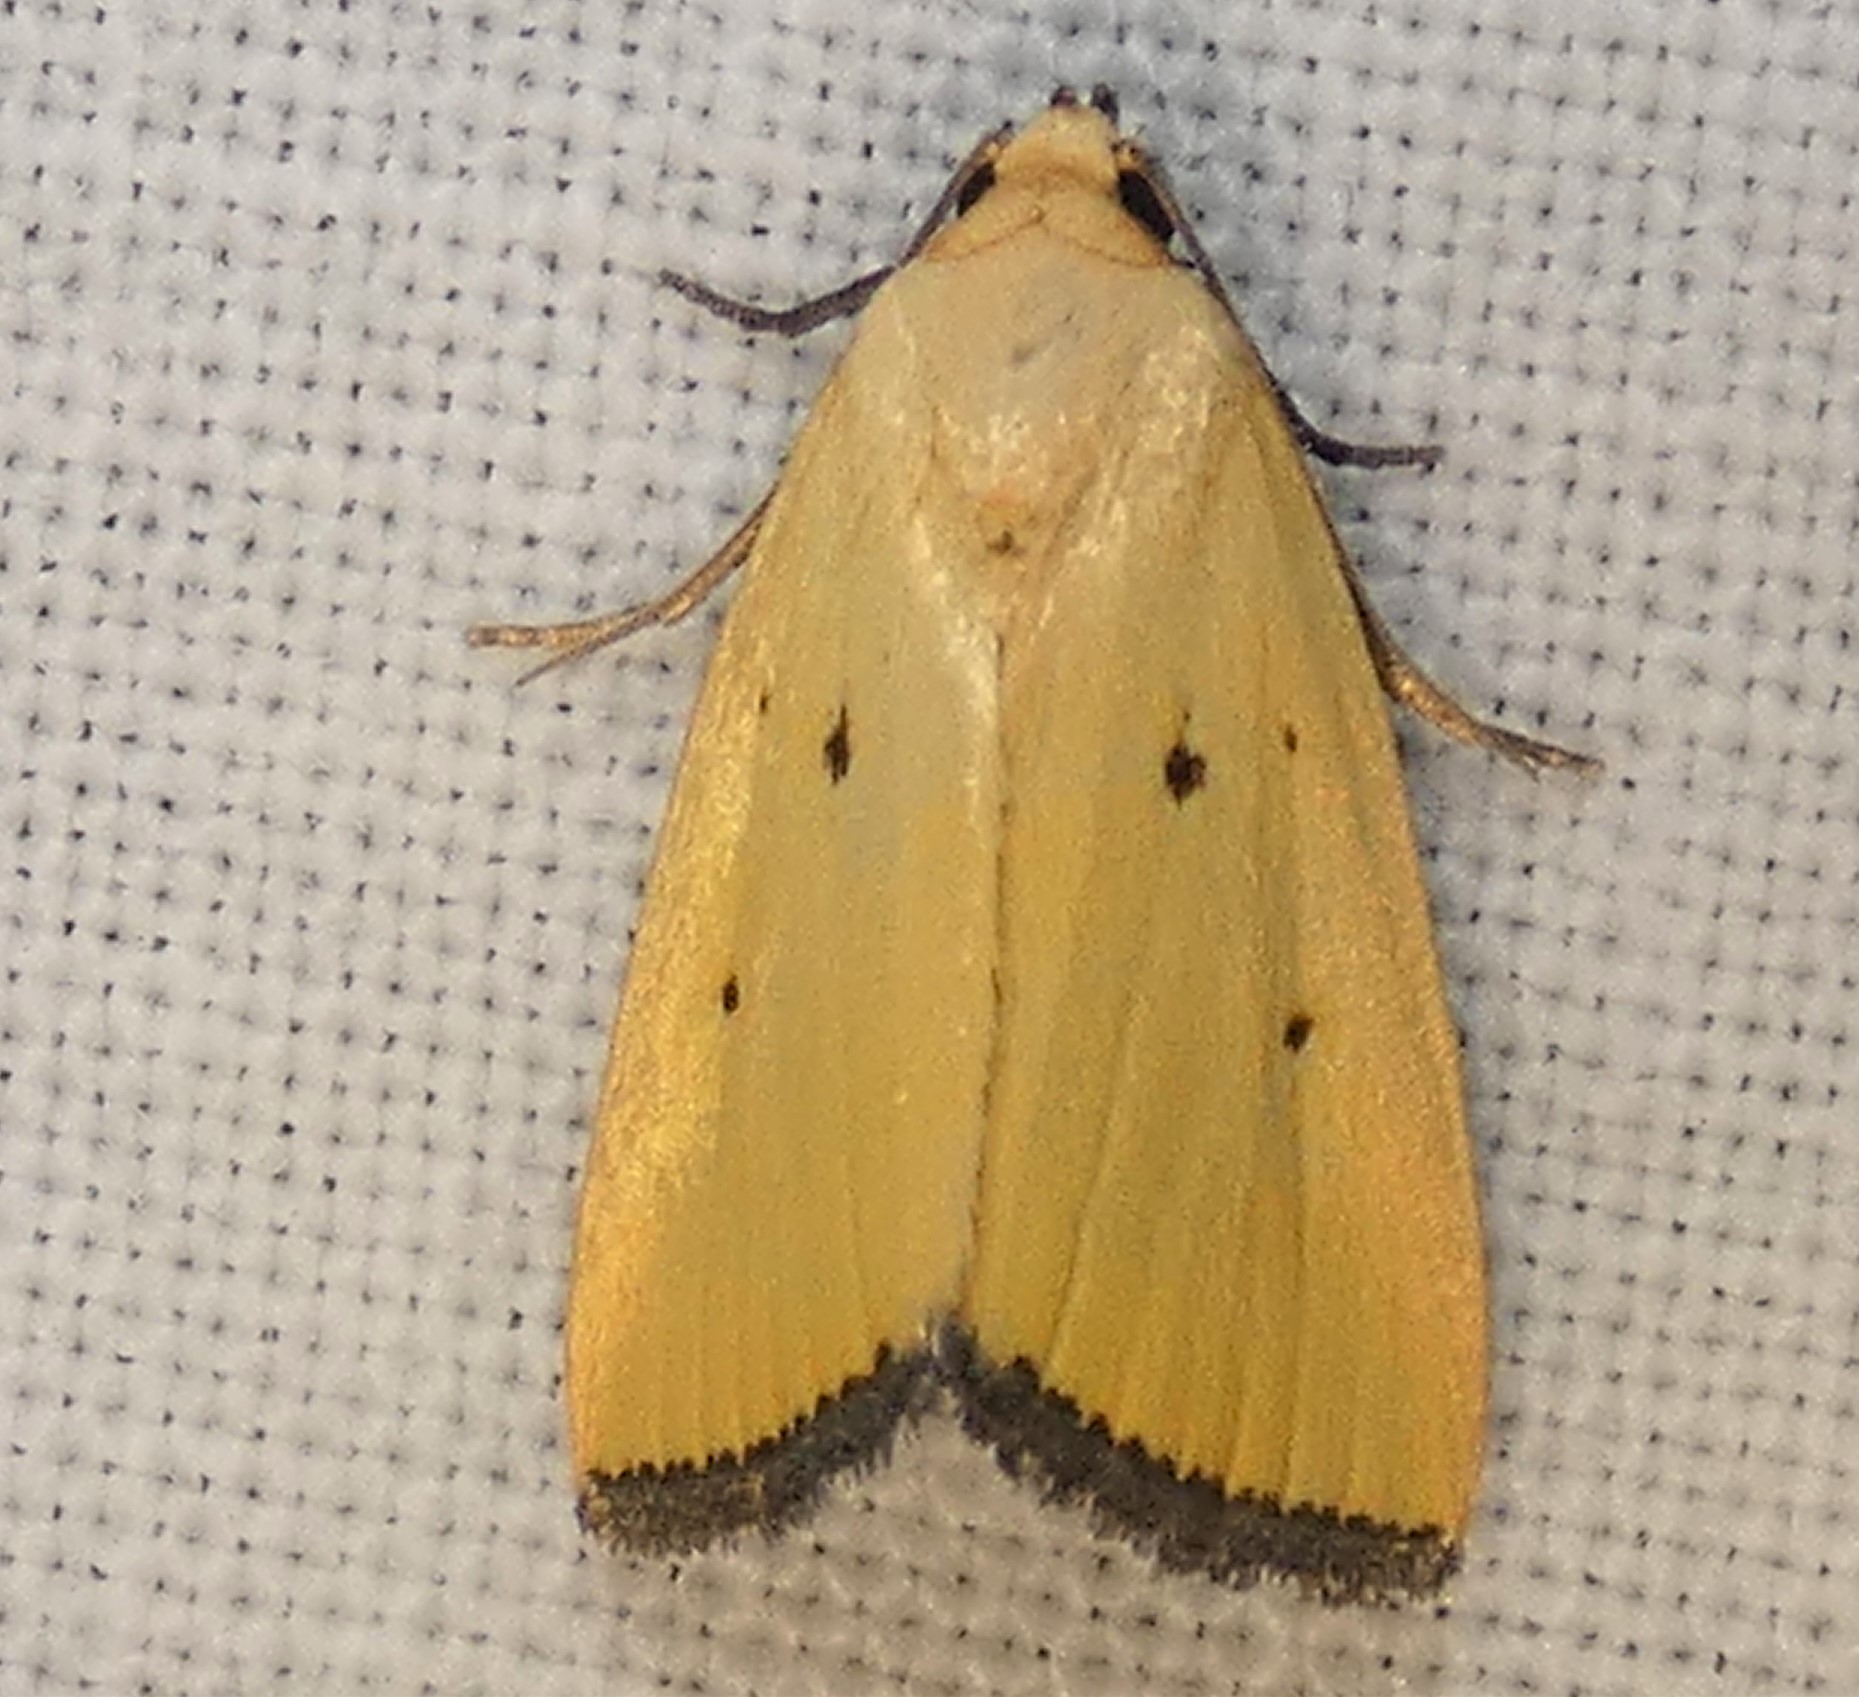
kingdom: Animalia
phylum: Arthropoda
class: Insecta
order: Lepidoptera
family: Noctuidae
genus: Marimatha
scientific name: Marimatha nigrofimbria
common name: Black-bordered lemon moth
